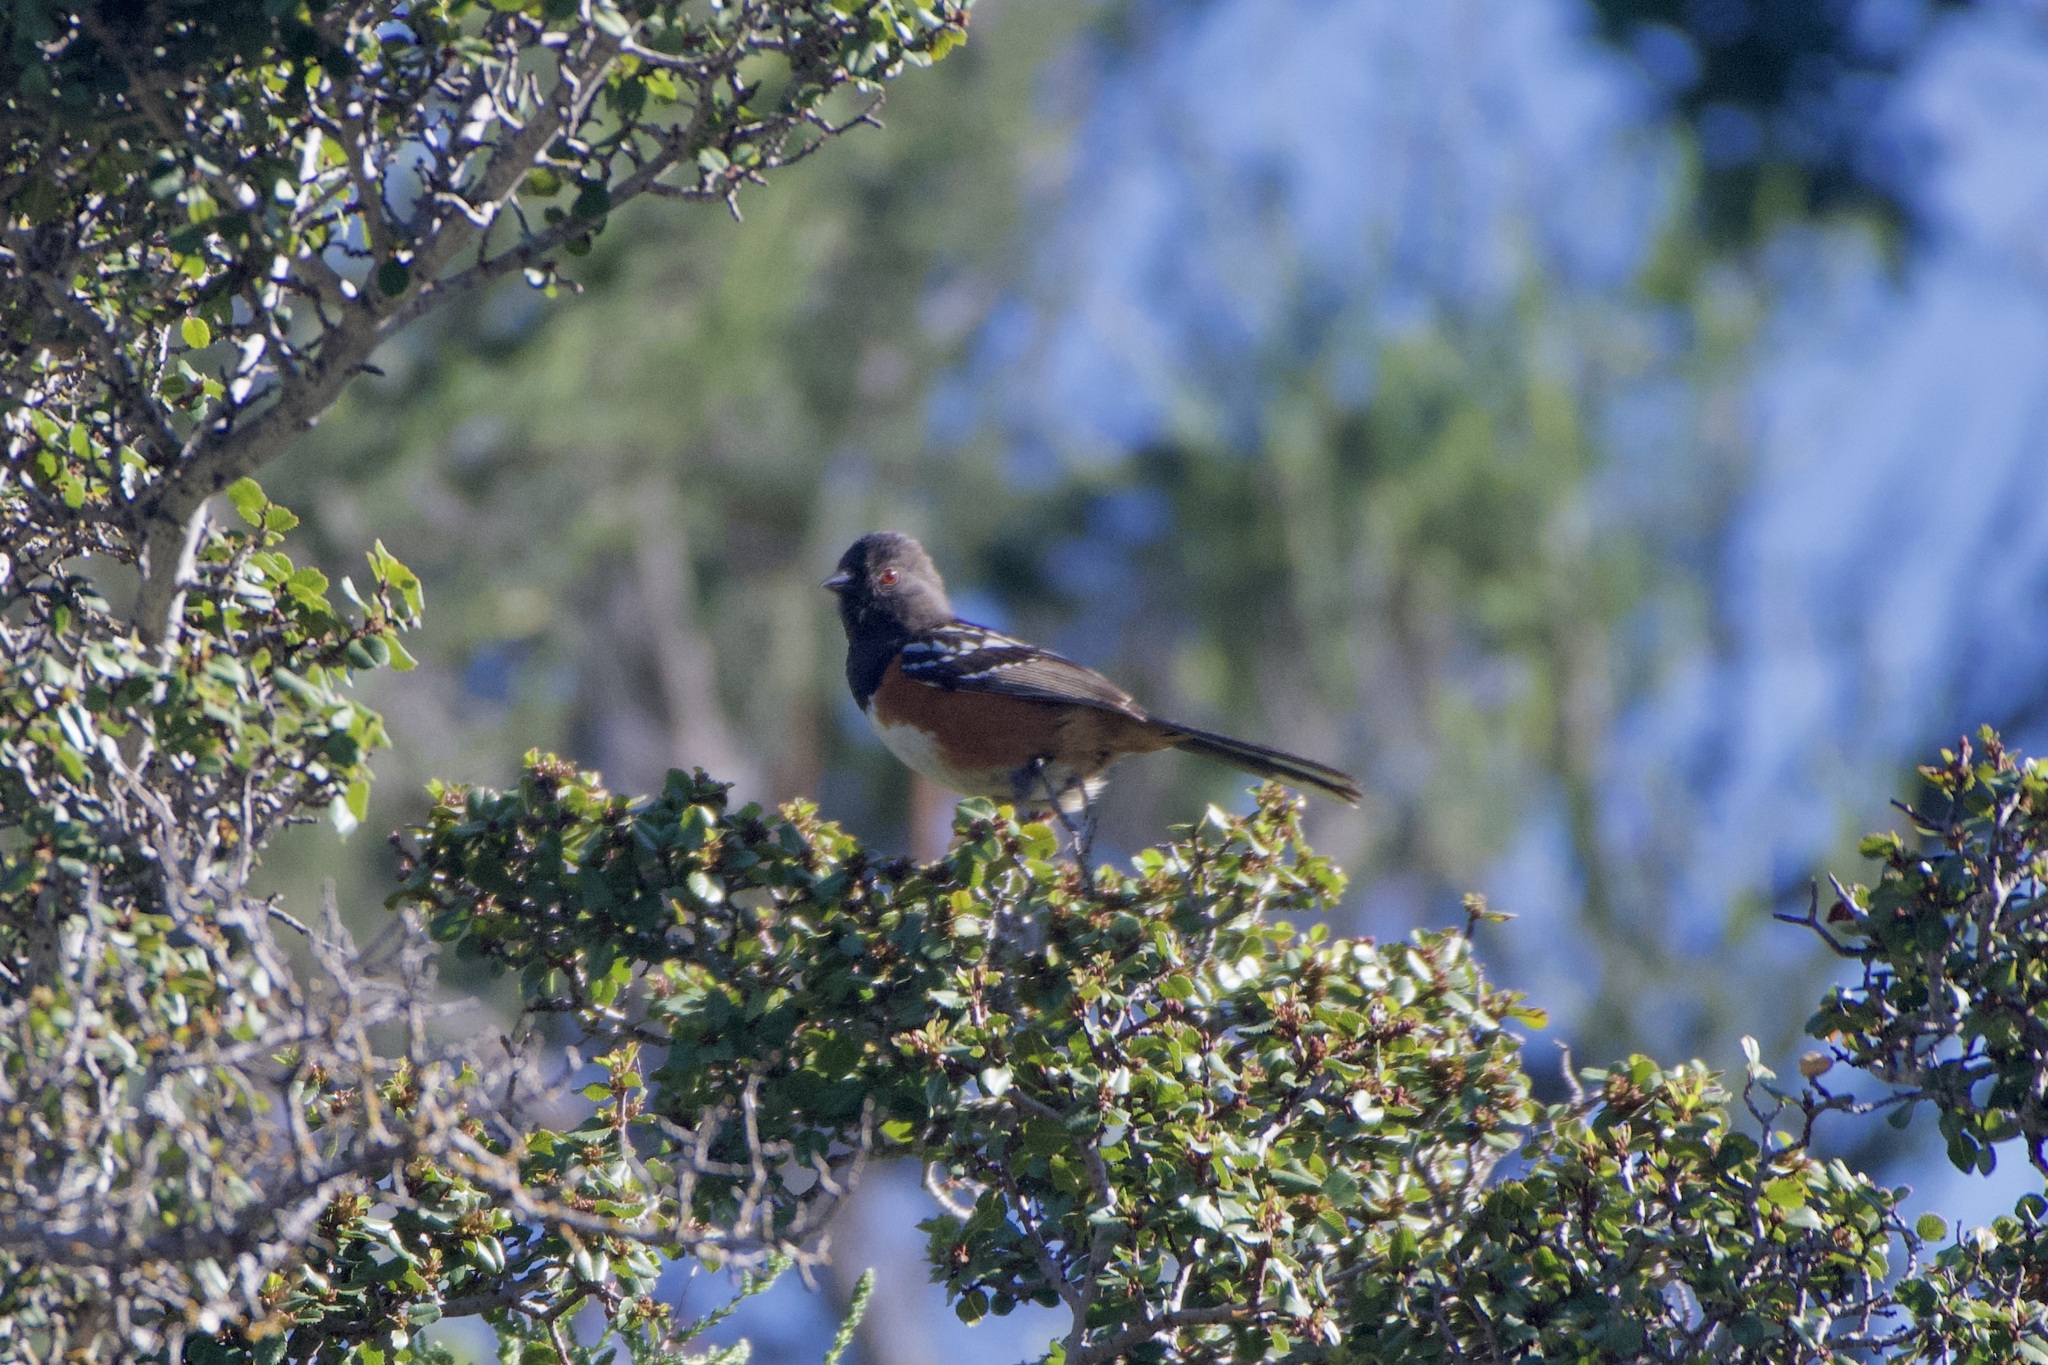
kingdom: Animalia
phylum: Chordata
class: Aves
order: Passeriformes
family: Passerellidae
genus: Pipilo
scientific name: Pipilo maculatus
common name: Spotted towhee
